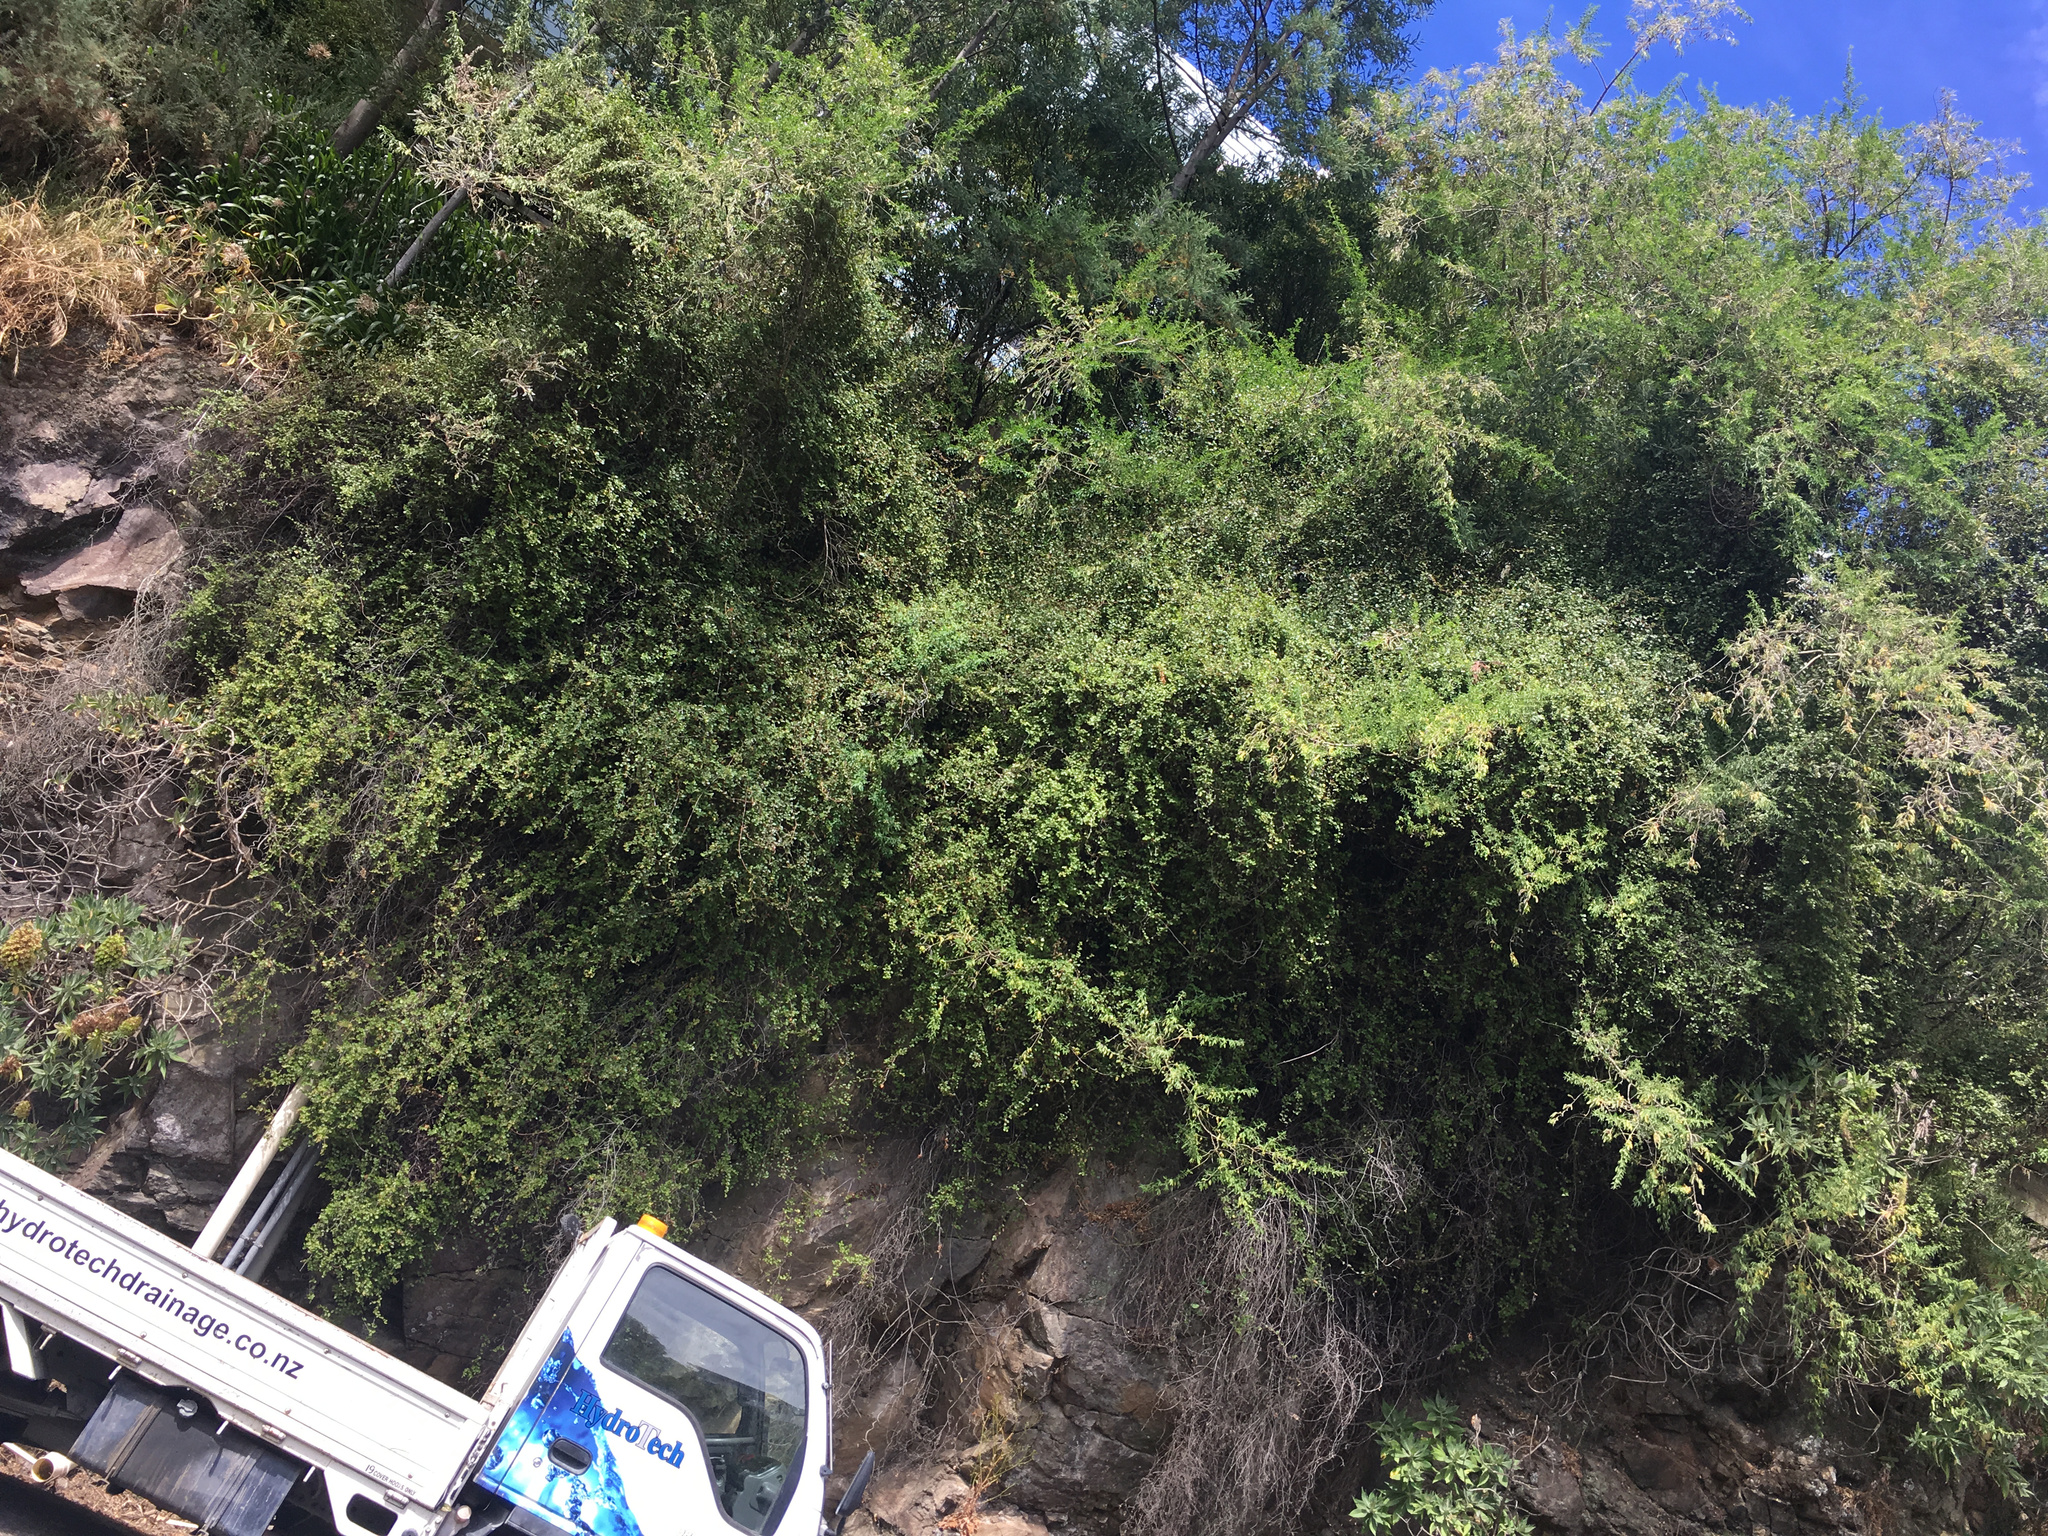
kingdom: Plantae
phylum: Tracheophyta
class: Magnoliopsida
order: Caryophyllales
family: Polygonaceae
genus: Muehlenbeckia
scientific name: Muehlenbeckia complexa
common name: Wireplant
